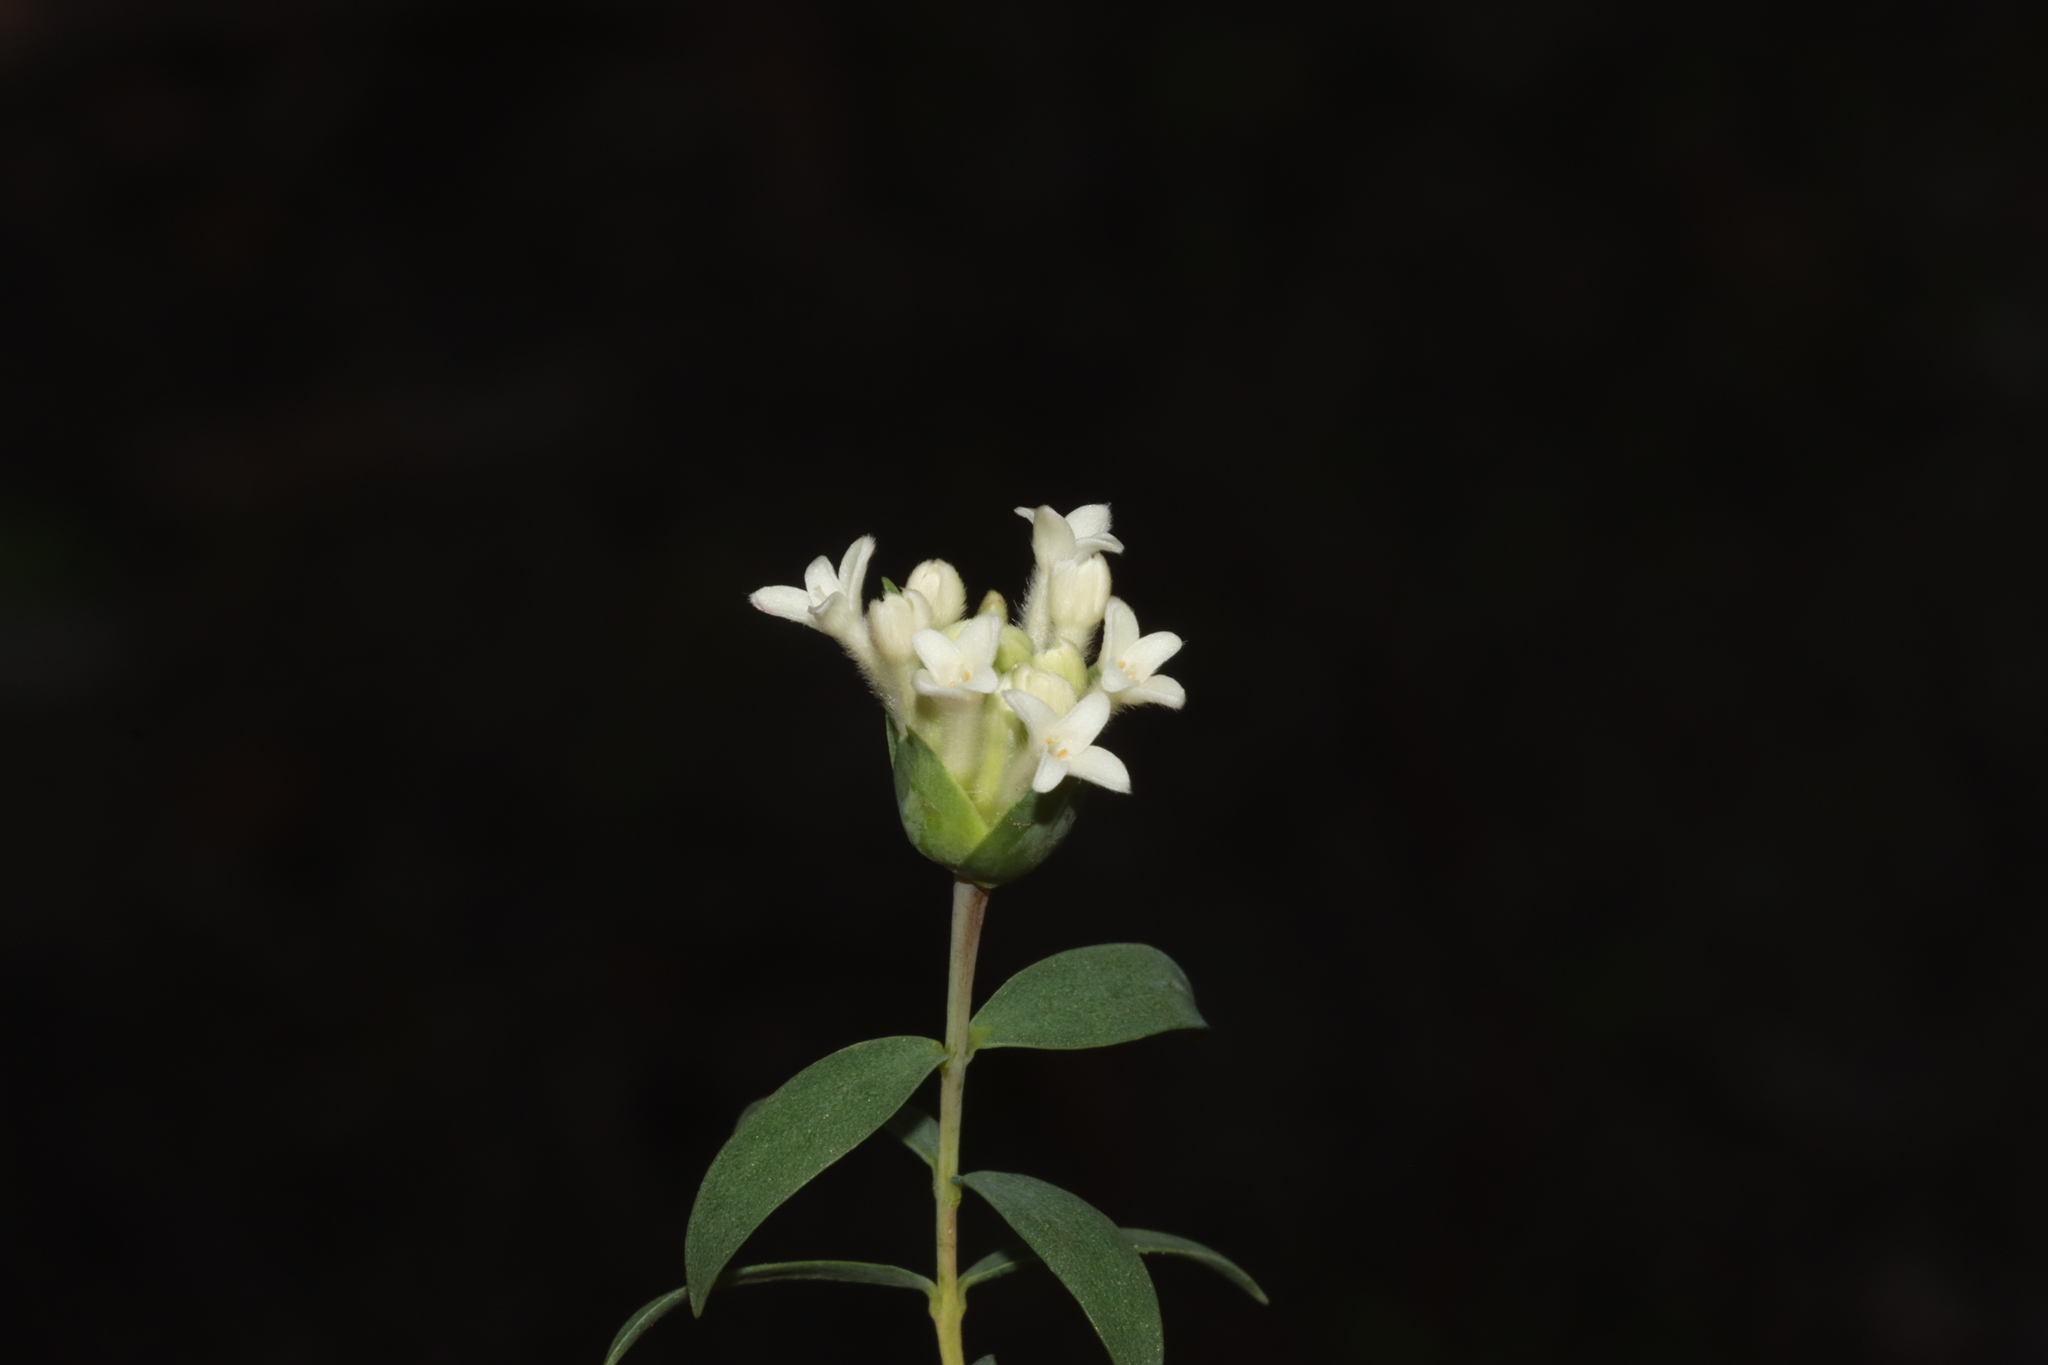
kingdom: Plantae
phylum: Tracheophyta
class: Magnoliopsida
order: Malvales
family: Thymelaeaceae
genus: Pimelea
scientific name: Pimelea stricta
